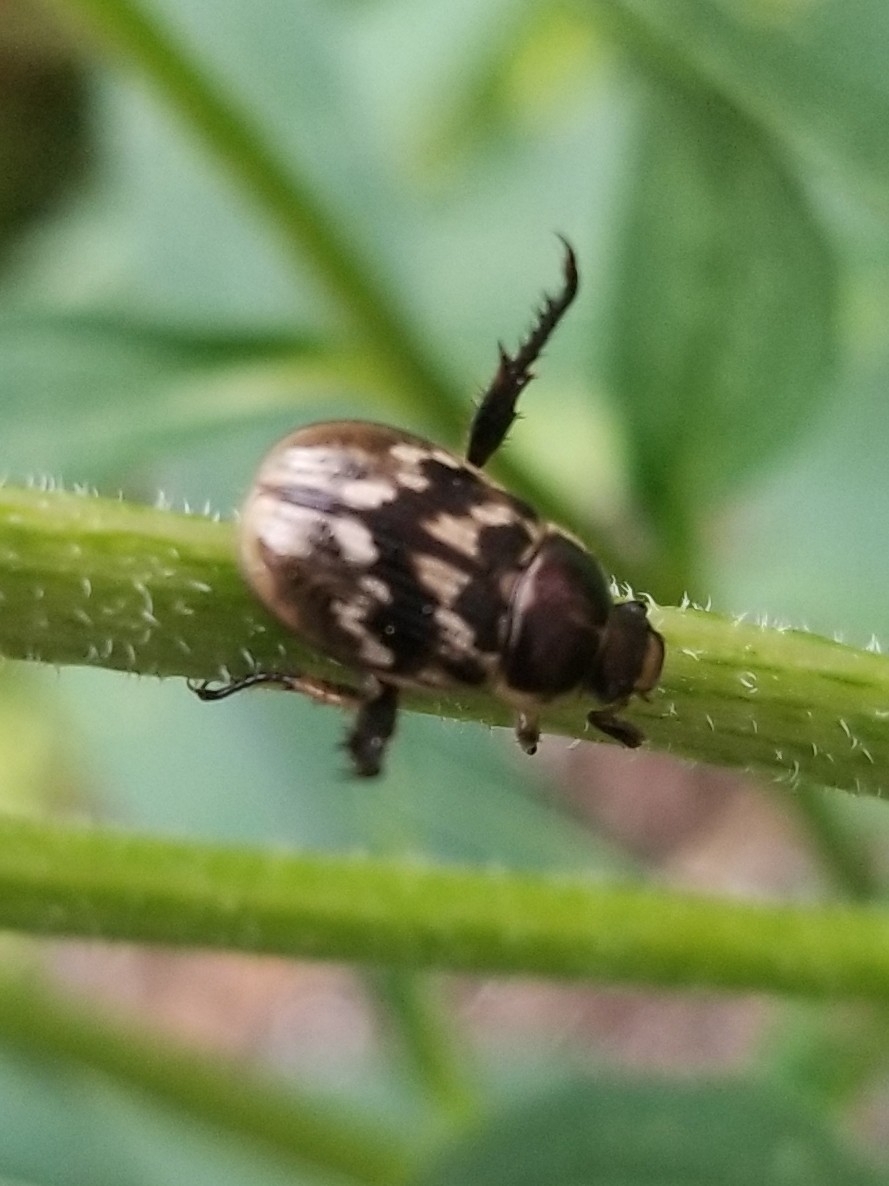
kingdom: Animalia
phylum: Arthropoda
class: Insecta
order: Coleoptera
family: Scarabaeidae
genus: Exomala
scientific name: Exomala orientalis
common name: Oriental beetle
